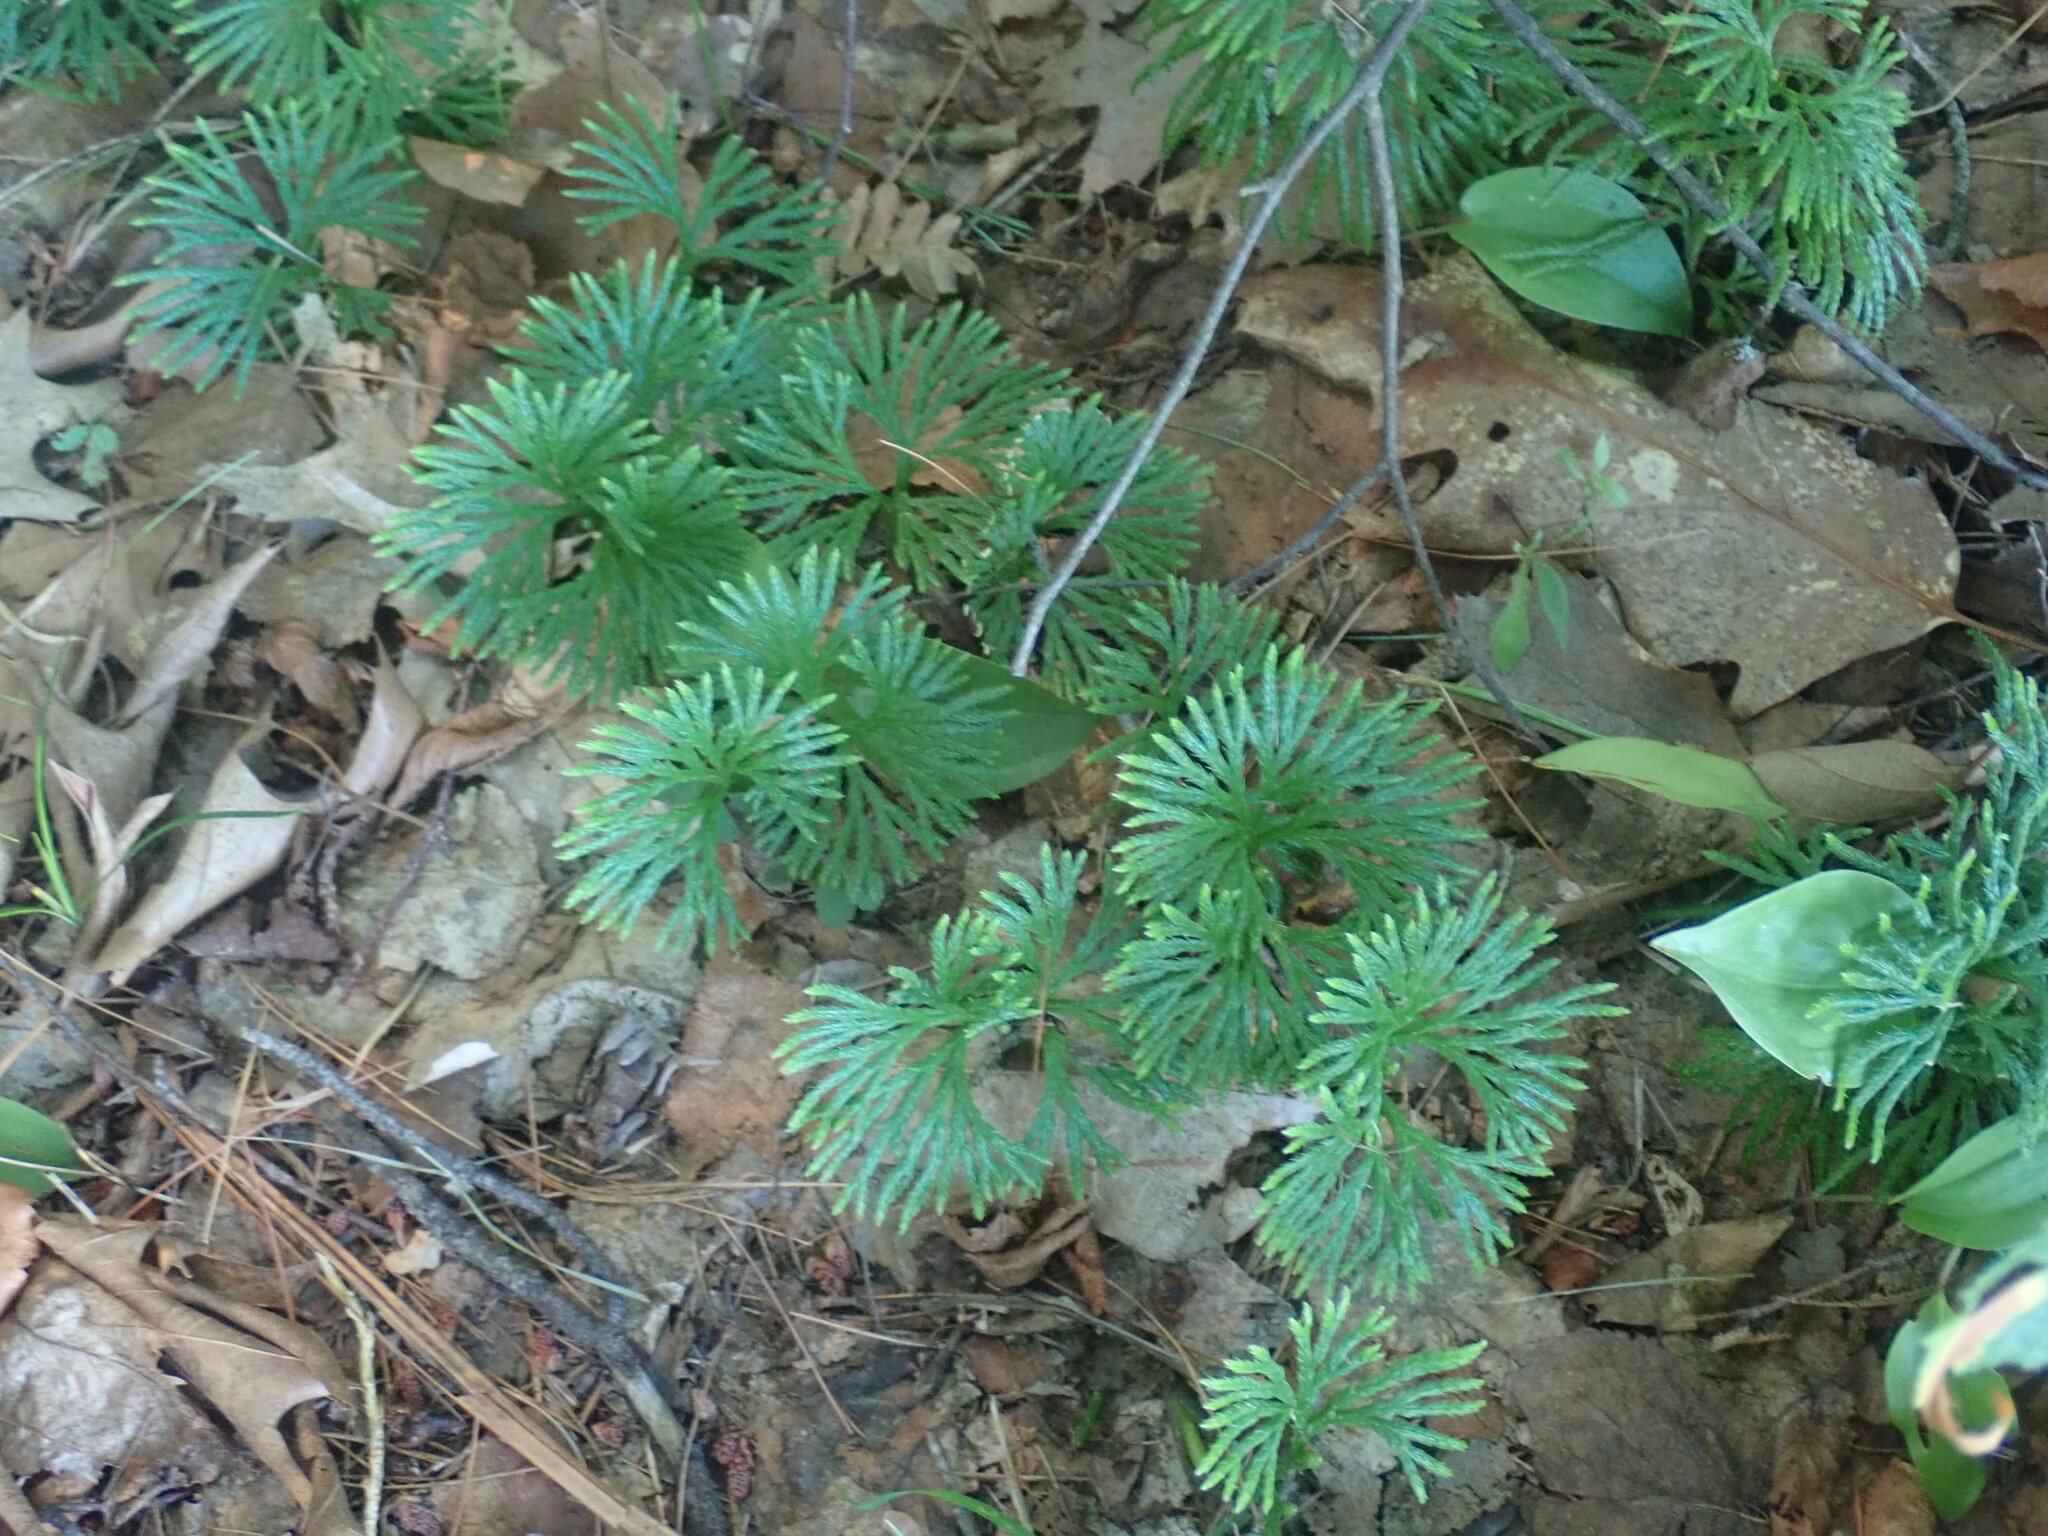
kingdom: Plantae
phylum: Tracheophyta
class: Lycopodiopsida
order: Lycopodiales
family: Lycopodiaceae
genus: Diphasiastrum
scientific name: Diphasiastrum digitatum
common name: Southern running-pine
